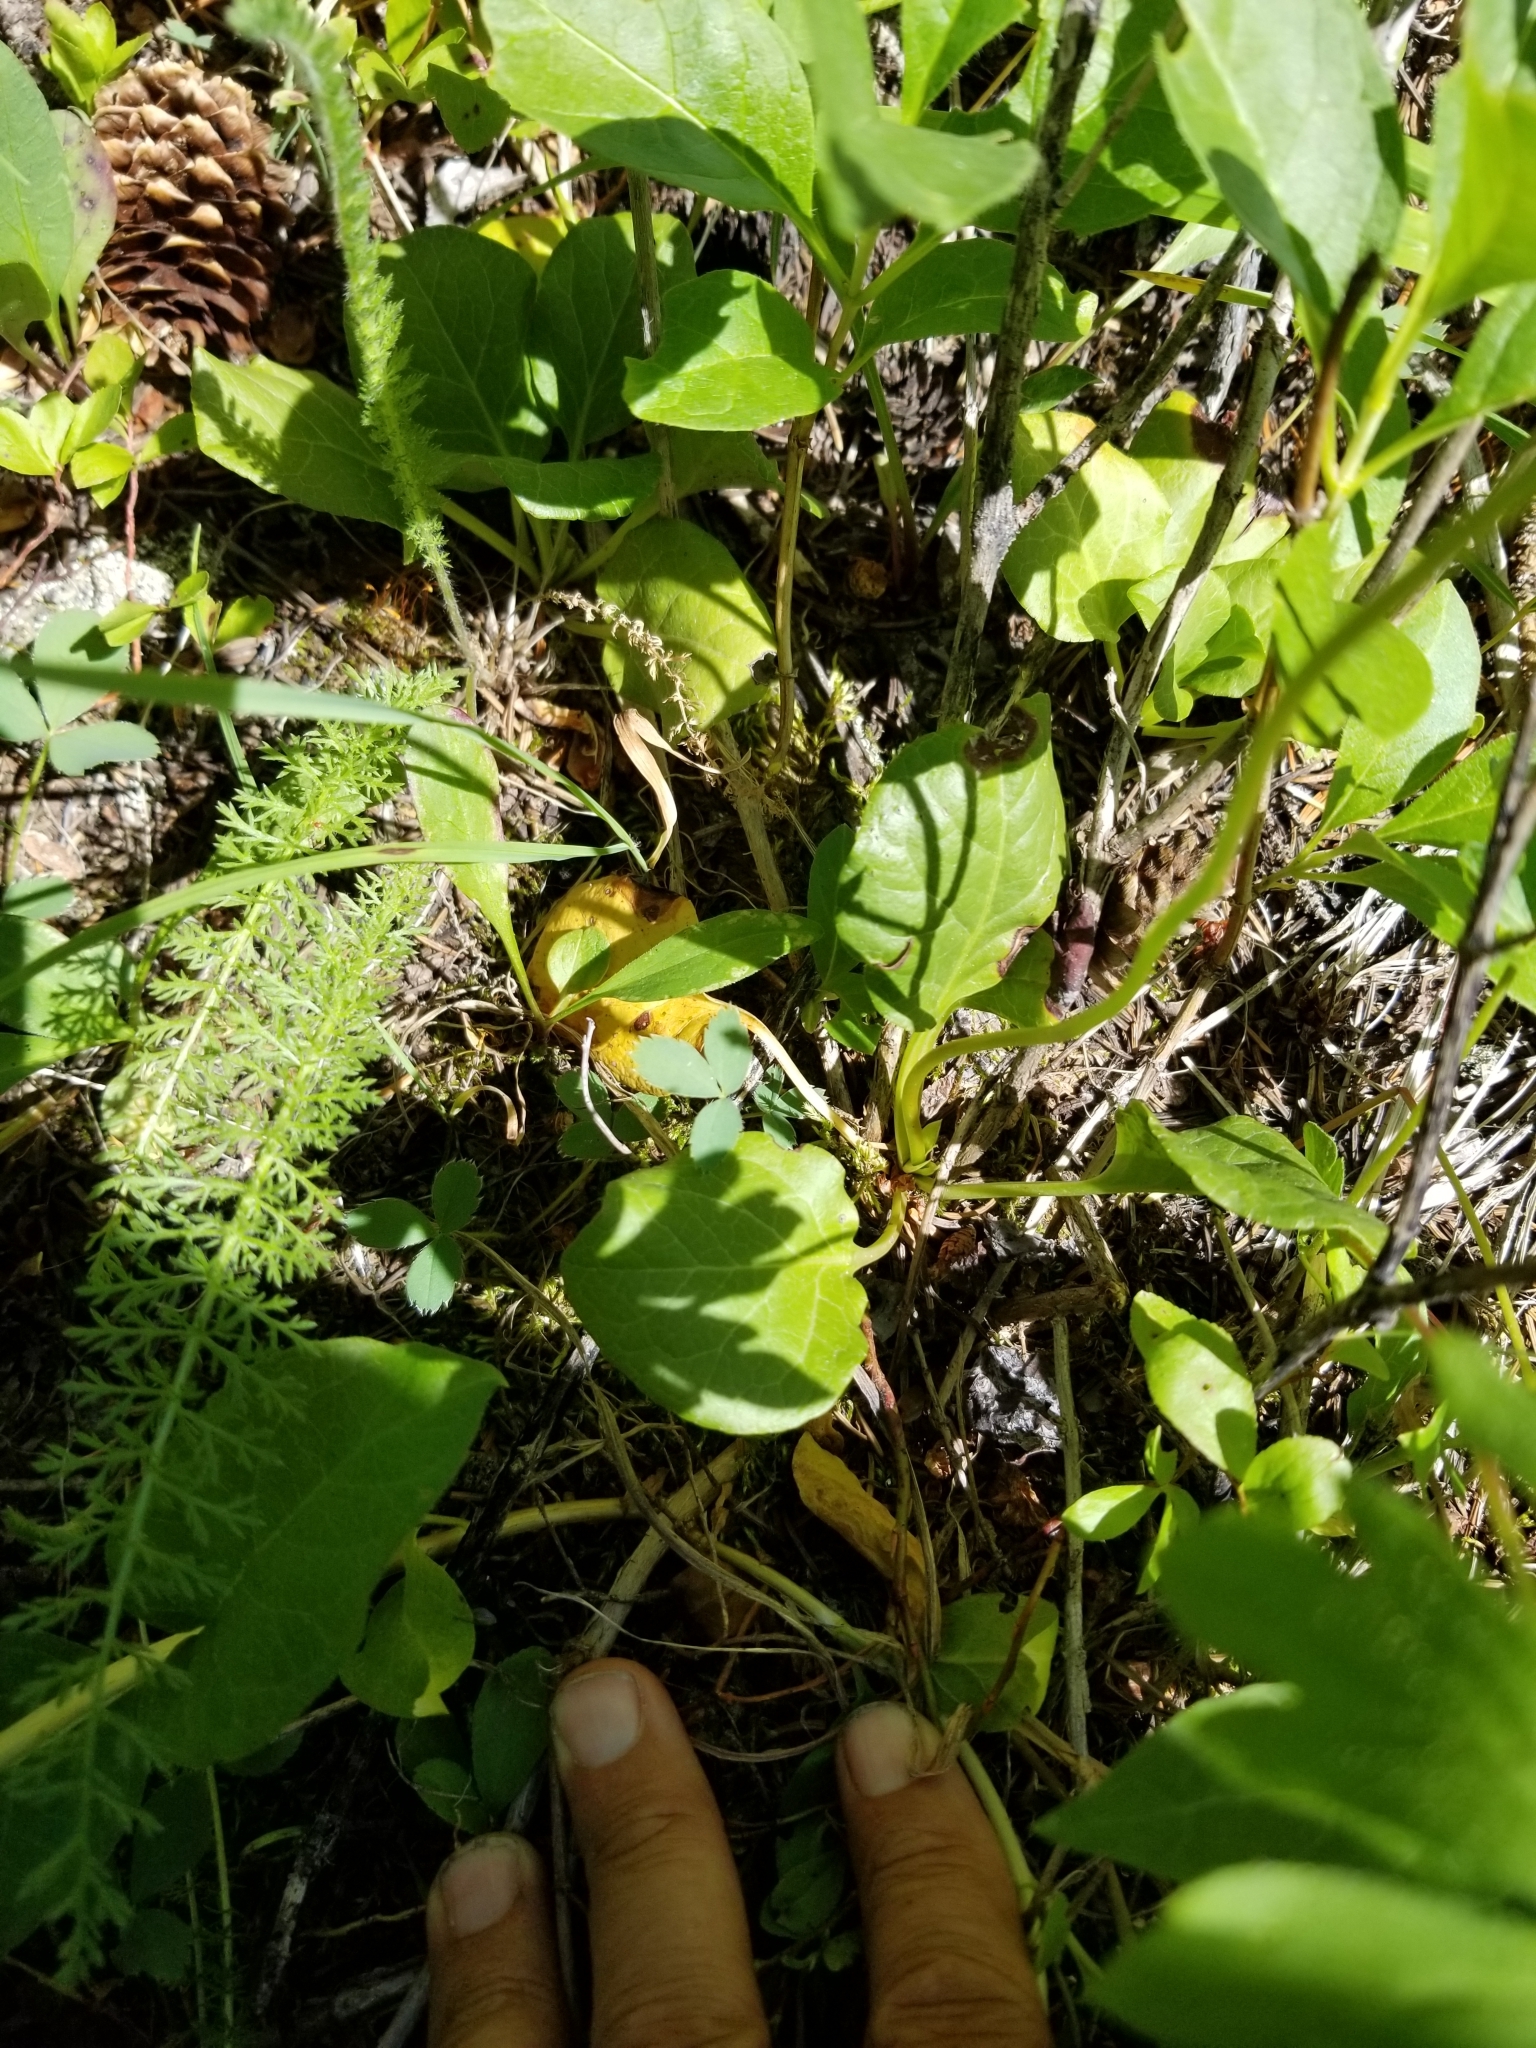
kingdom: Plantae
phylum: Tracheophyta
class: Magnoliopsida
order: Ericales
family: Ericaceae
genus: Pyrola
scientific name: Pyrola asarifolia
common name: Bog wintergreen
